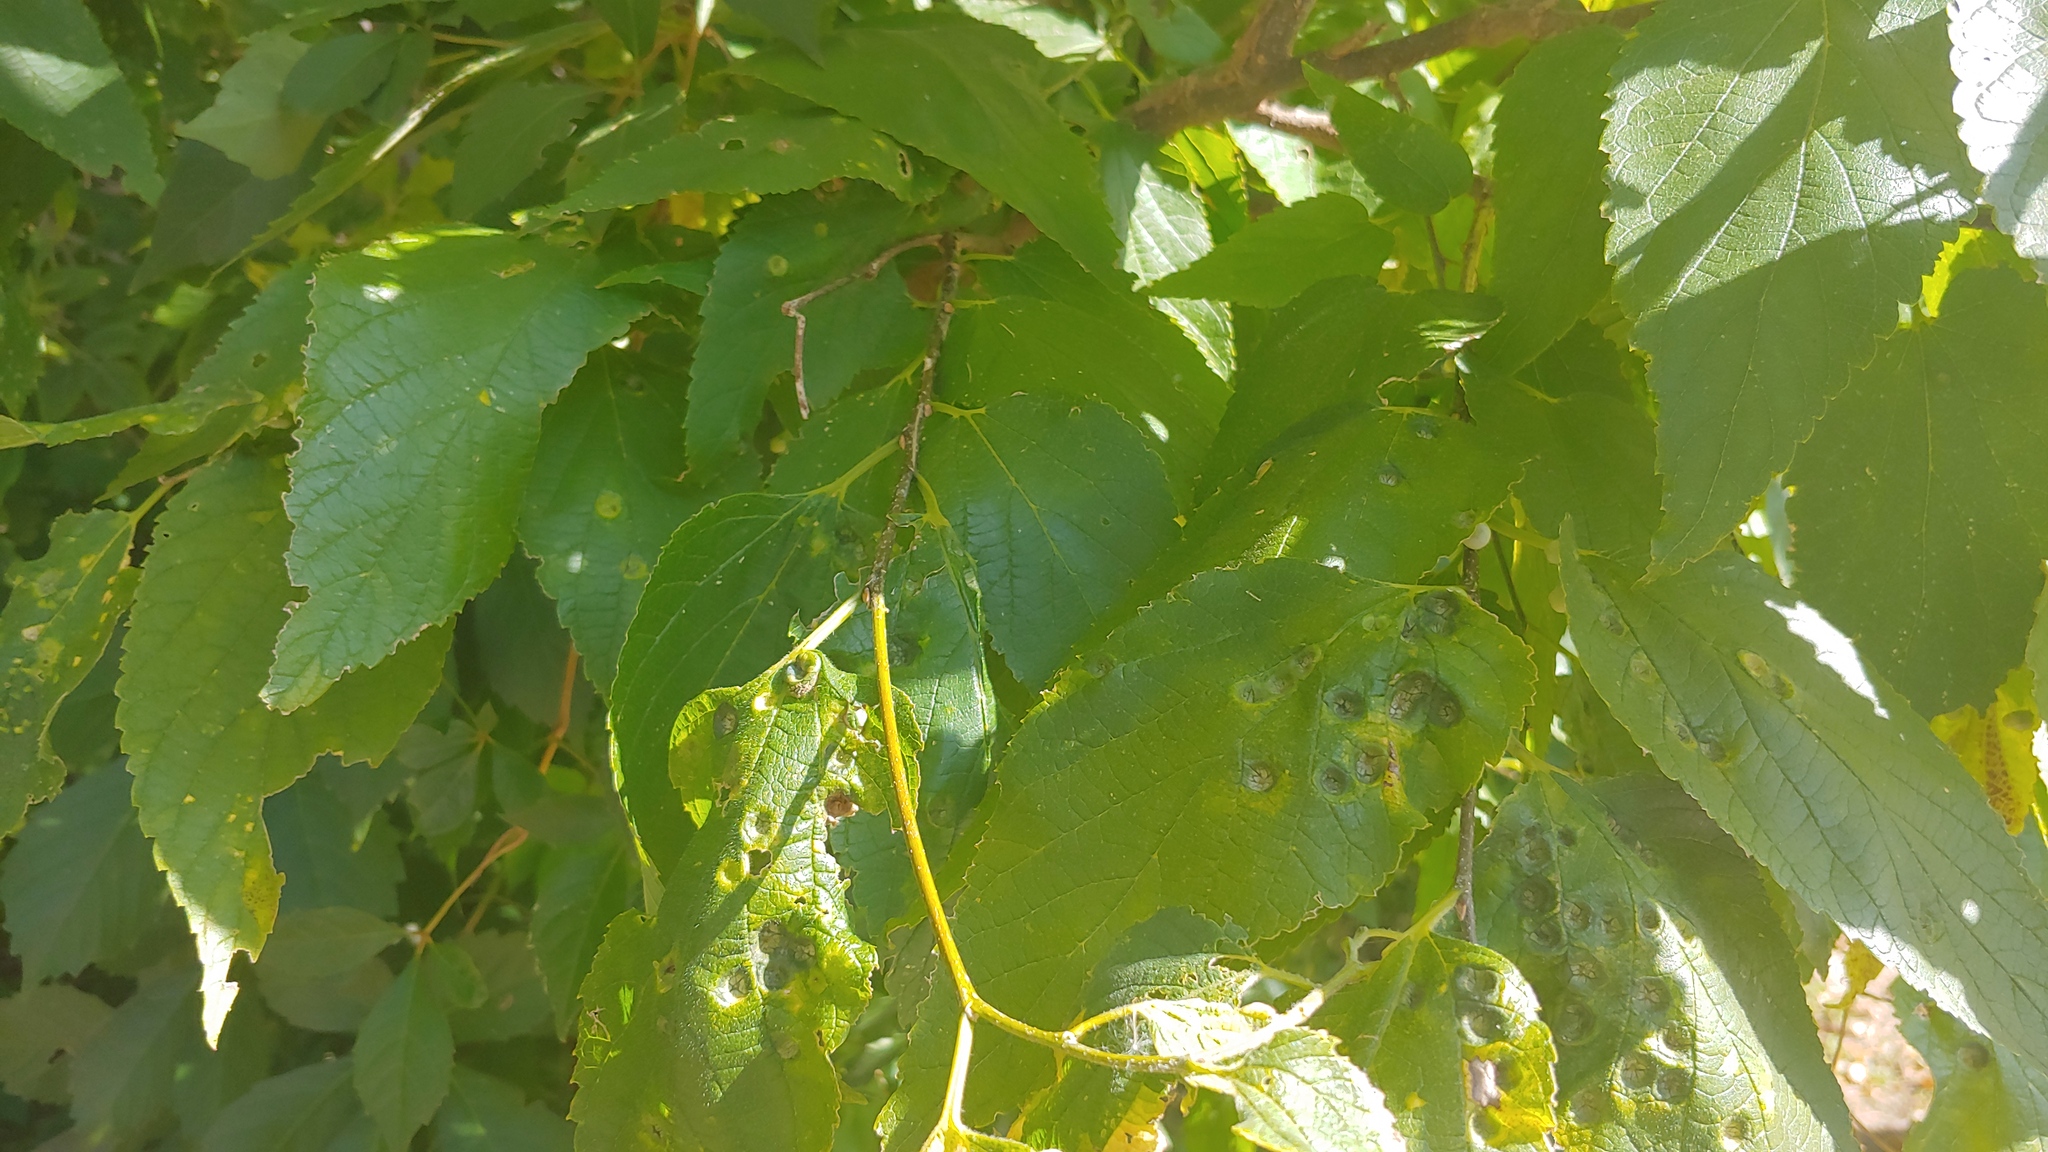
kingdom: Plantae
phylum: Tracheophyta
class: Magnoliopsida
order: Rosales
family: Cannabaceae
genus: Celtis
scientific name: Celtis occidentalis
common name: Common hackberry
